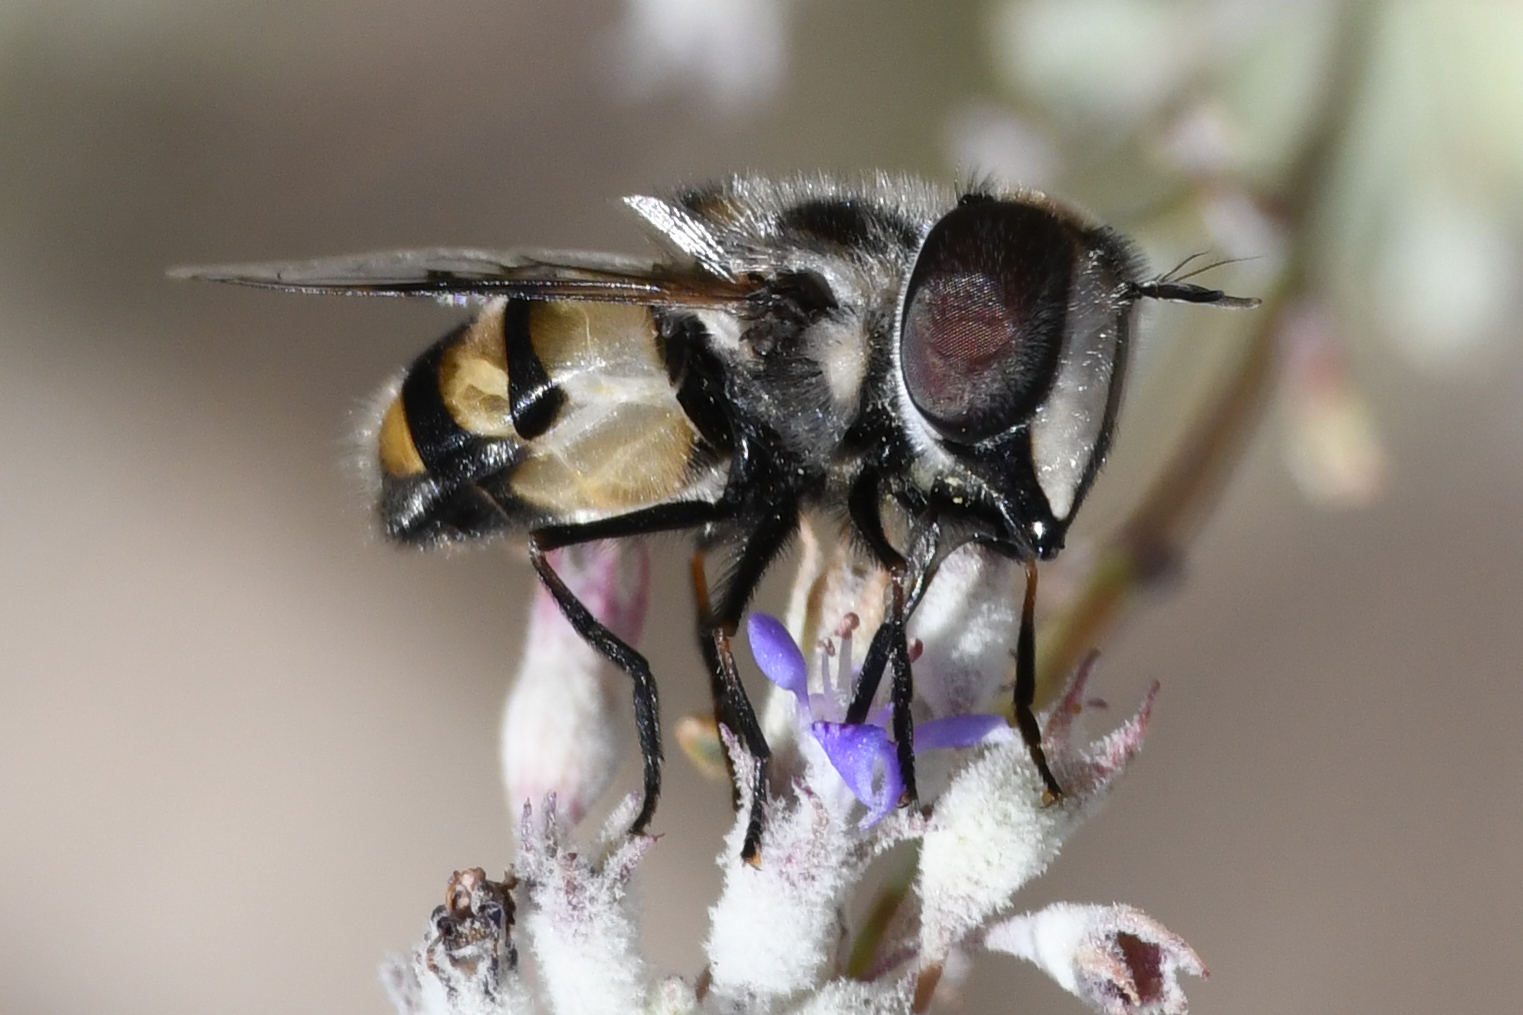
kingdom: Animalia
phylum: Arthropoda
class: Insecta
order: Diptera
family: Syrphidae
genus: Copestylum
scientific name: Copestylum fornax
